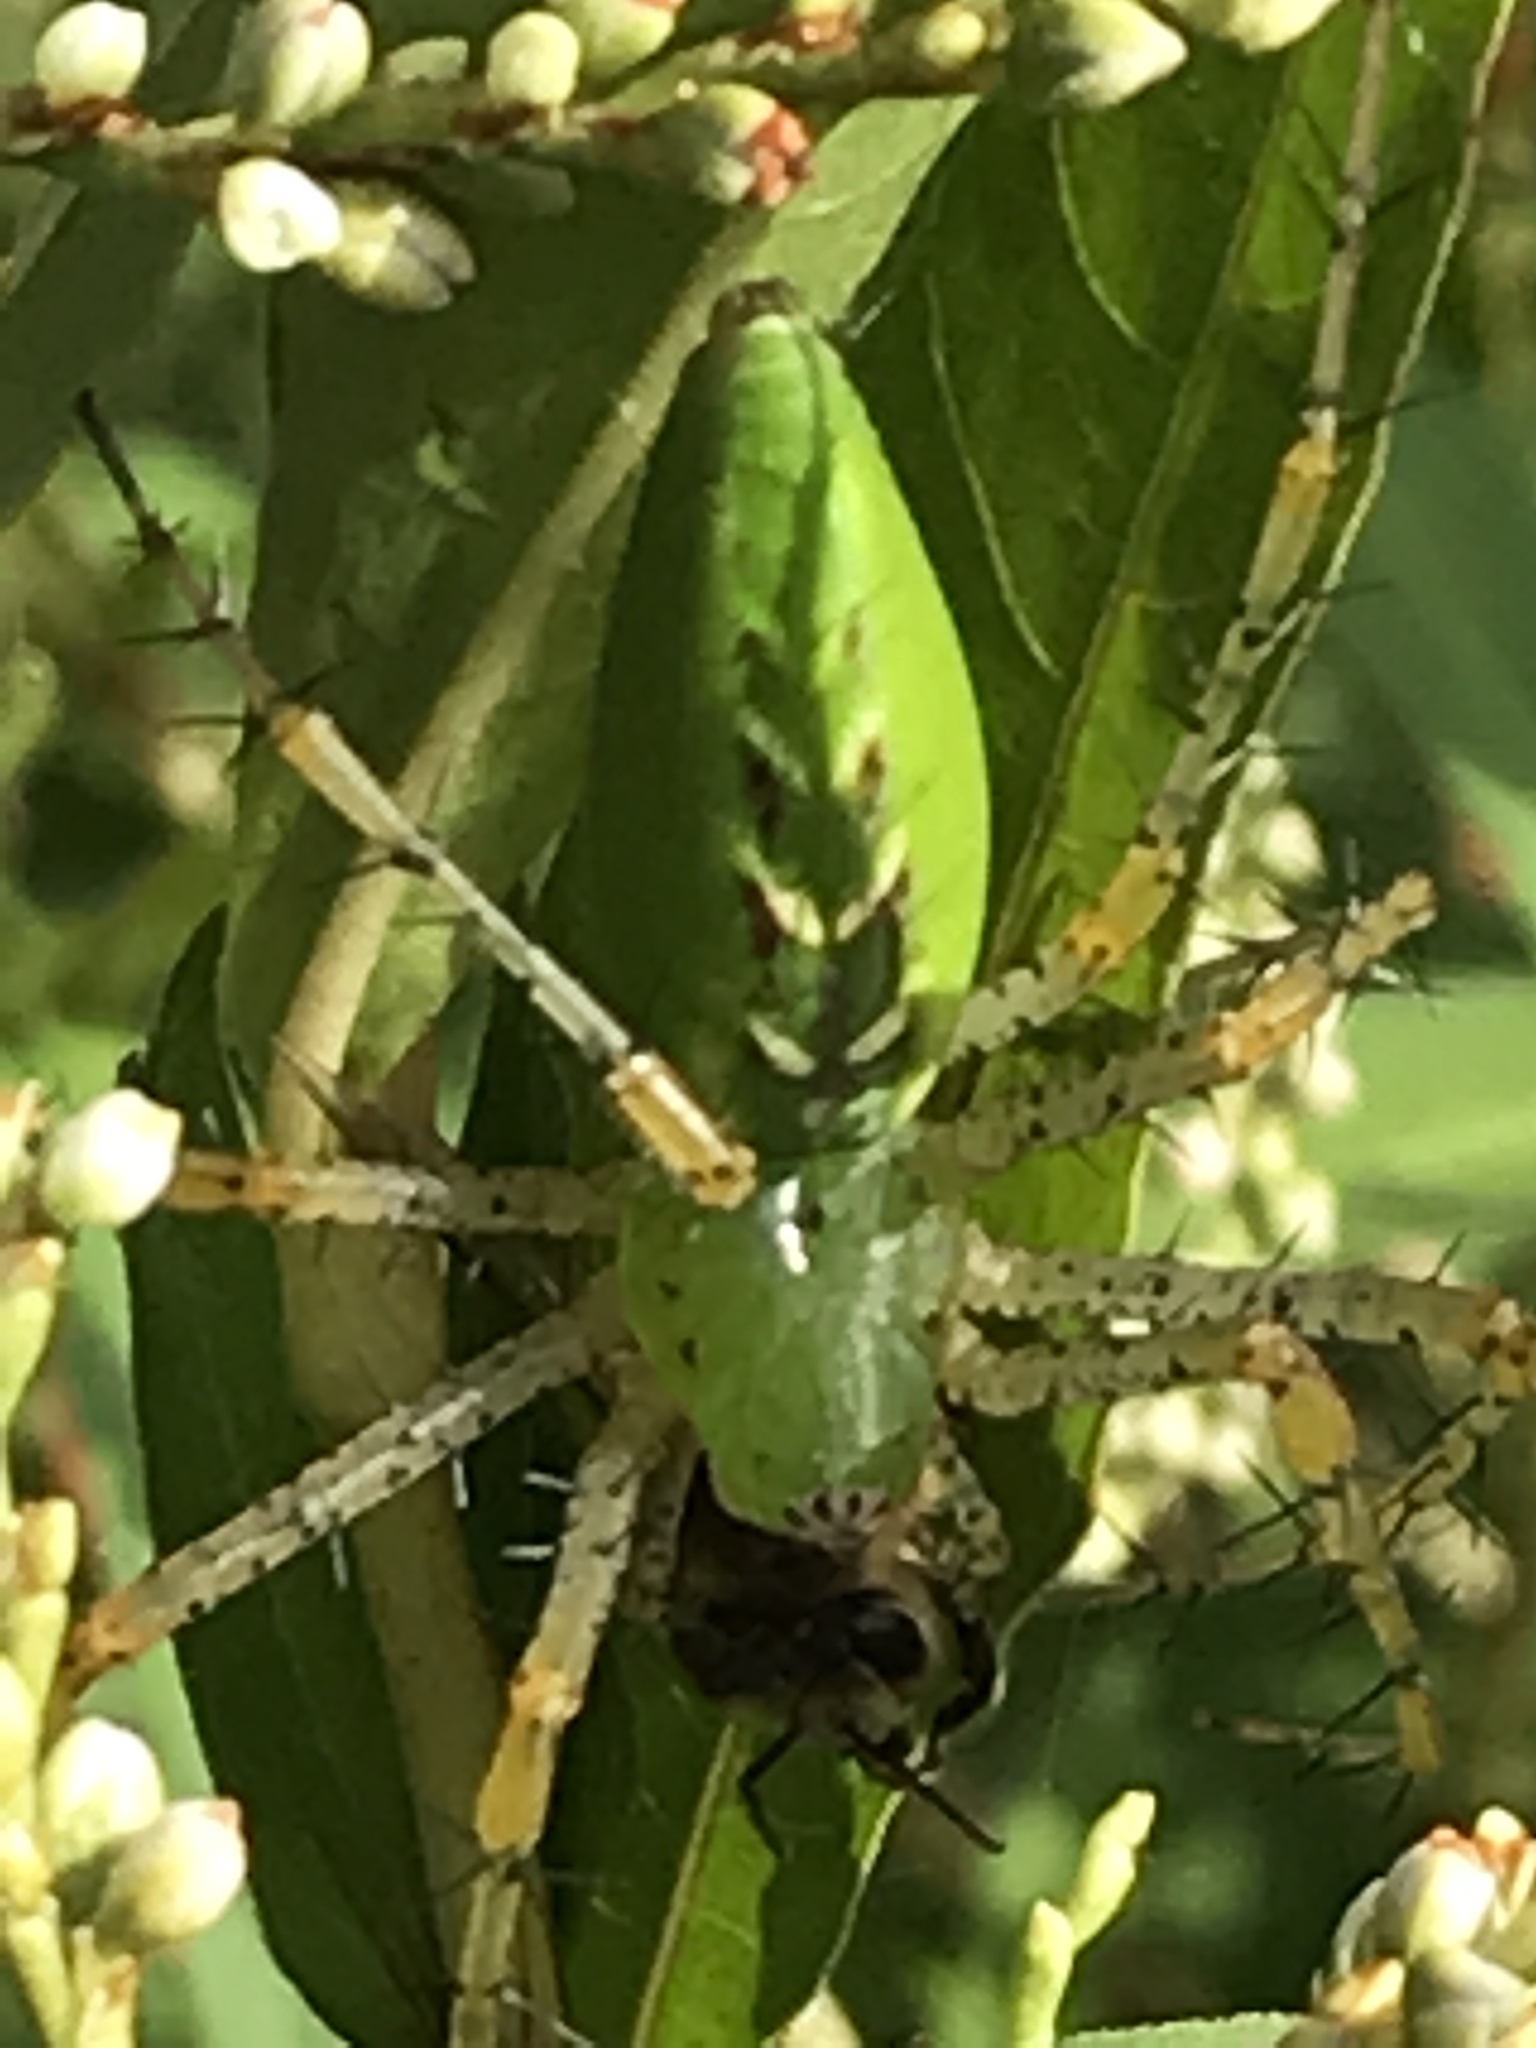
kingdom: Animalia
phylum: Arthropoda
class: Arachnida
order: Araneae
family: Oxyopidae
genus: Peucetia
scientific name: Peucetia viridans
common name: Lynx spiders
